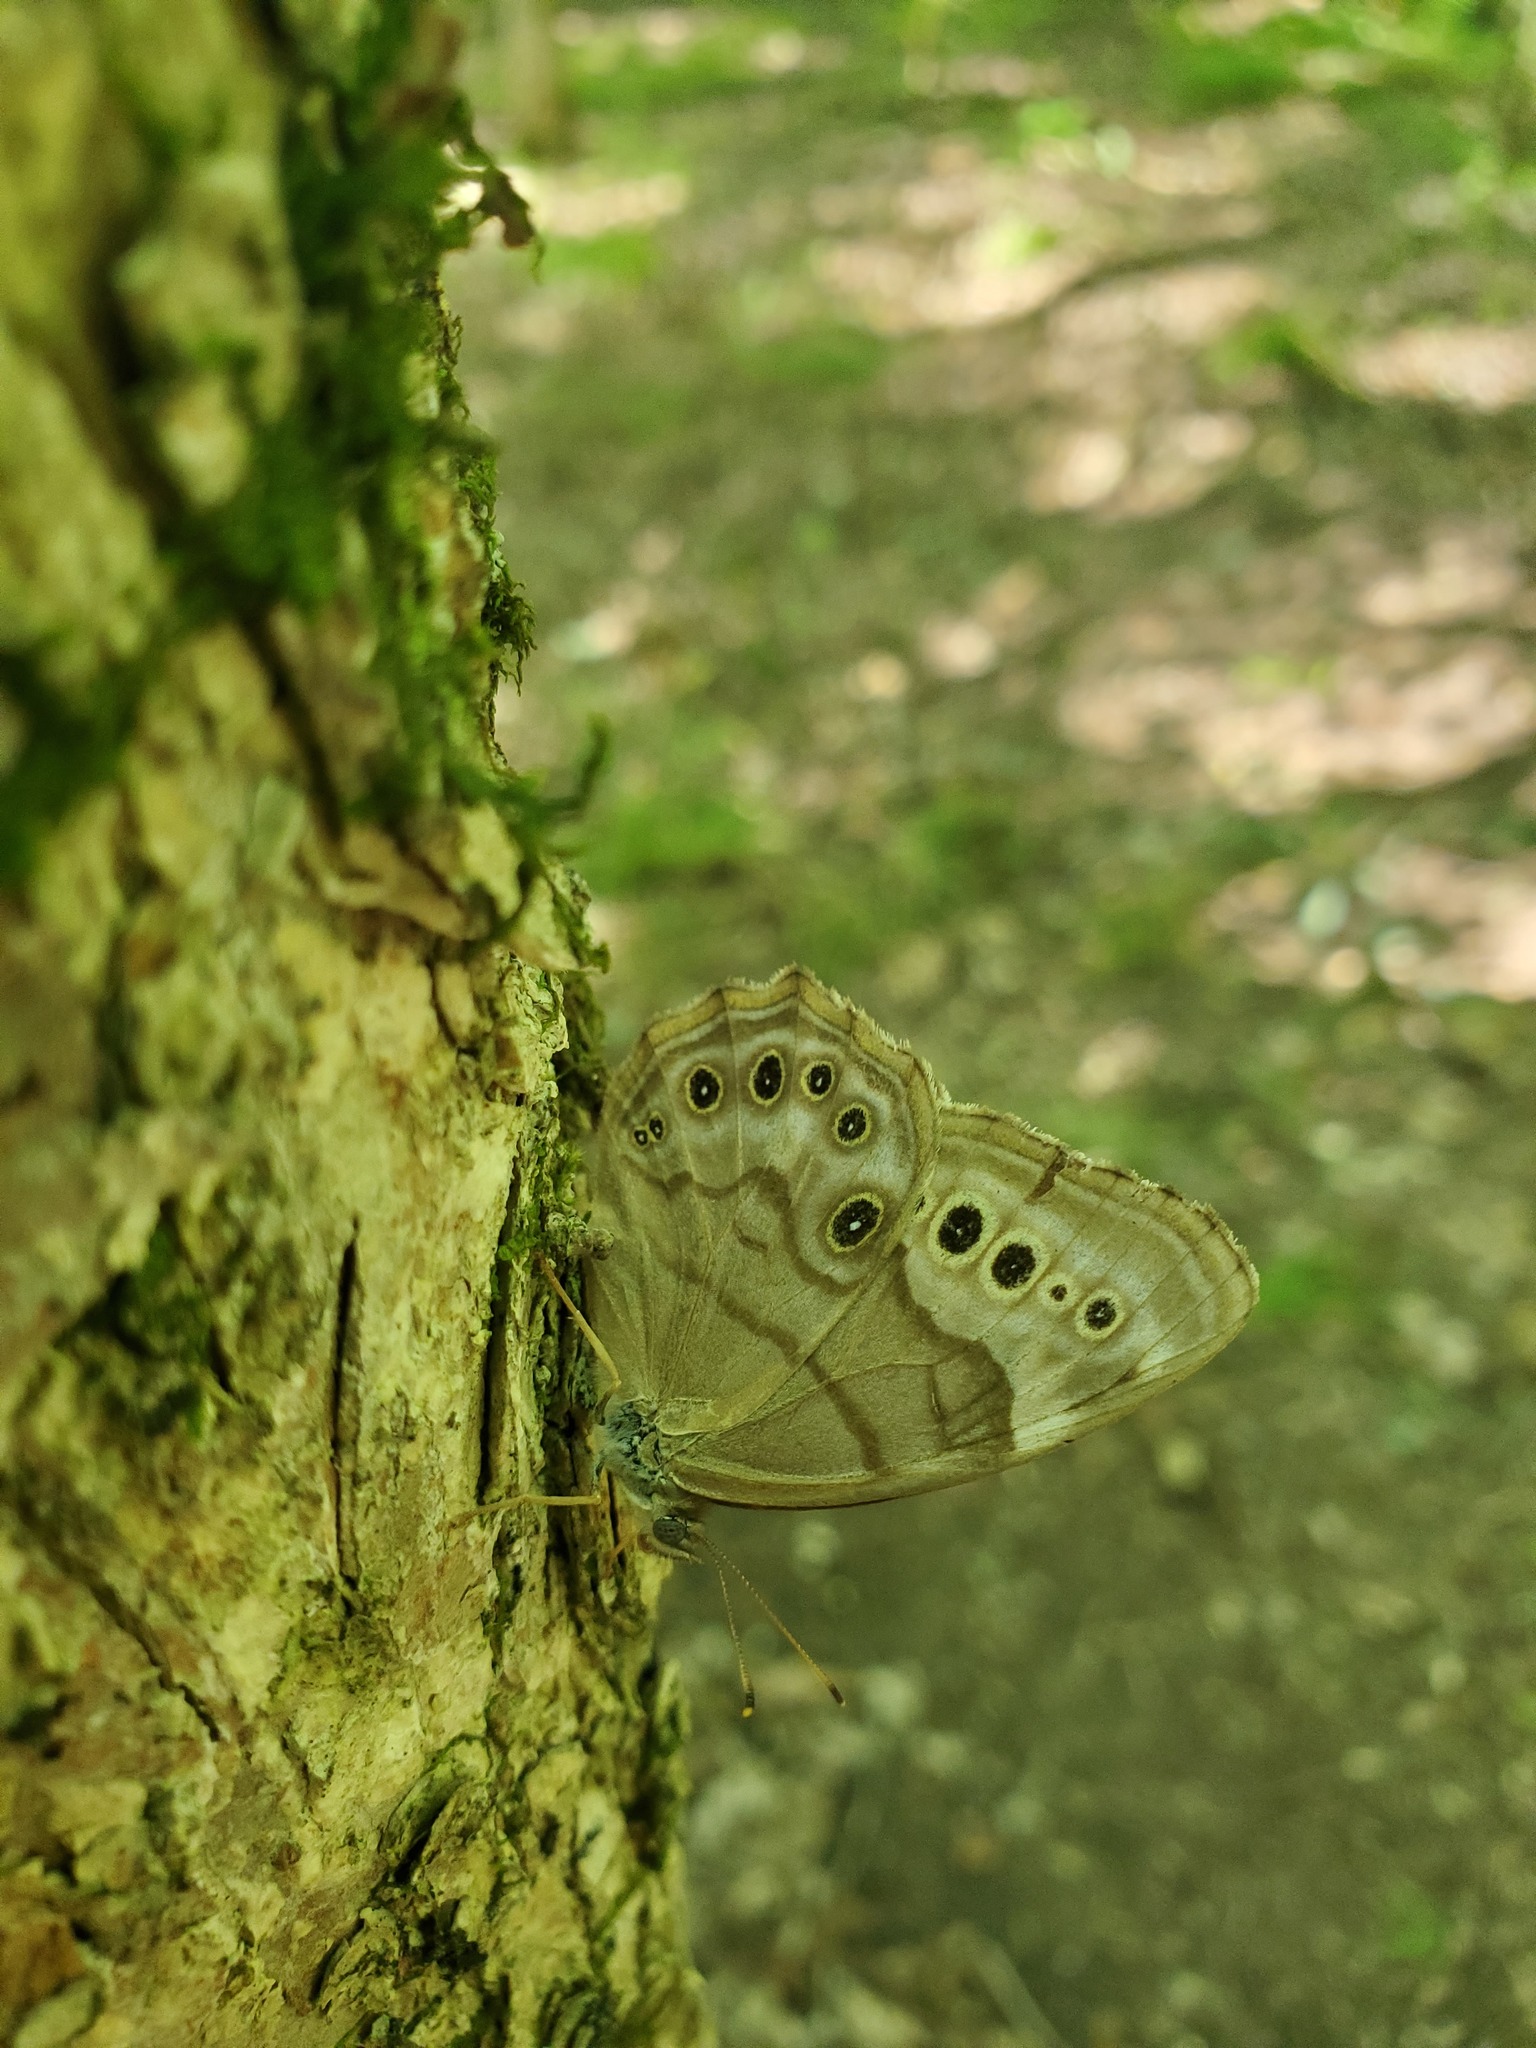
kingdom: Animalia
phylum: Arthropoda
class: Insecta
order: Lepidoptera
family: Nymphalidae
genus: Lethe
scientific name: Lethe anthedon
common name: Northern pearly-eye
